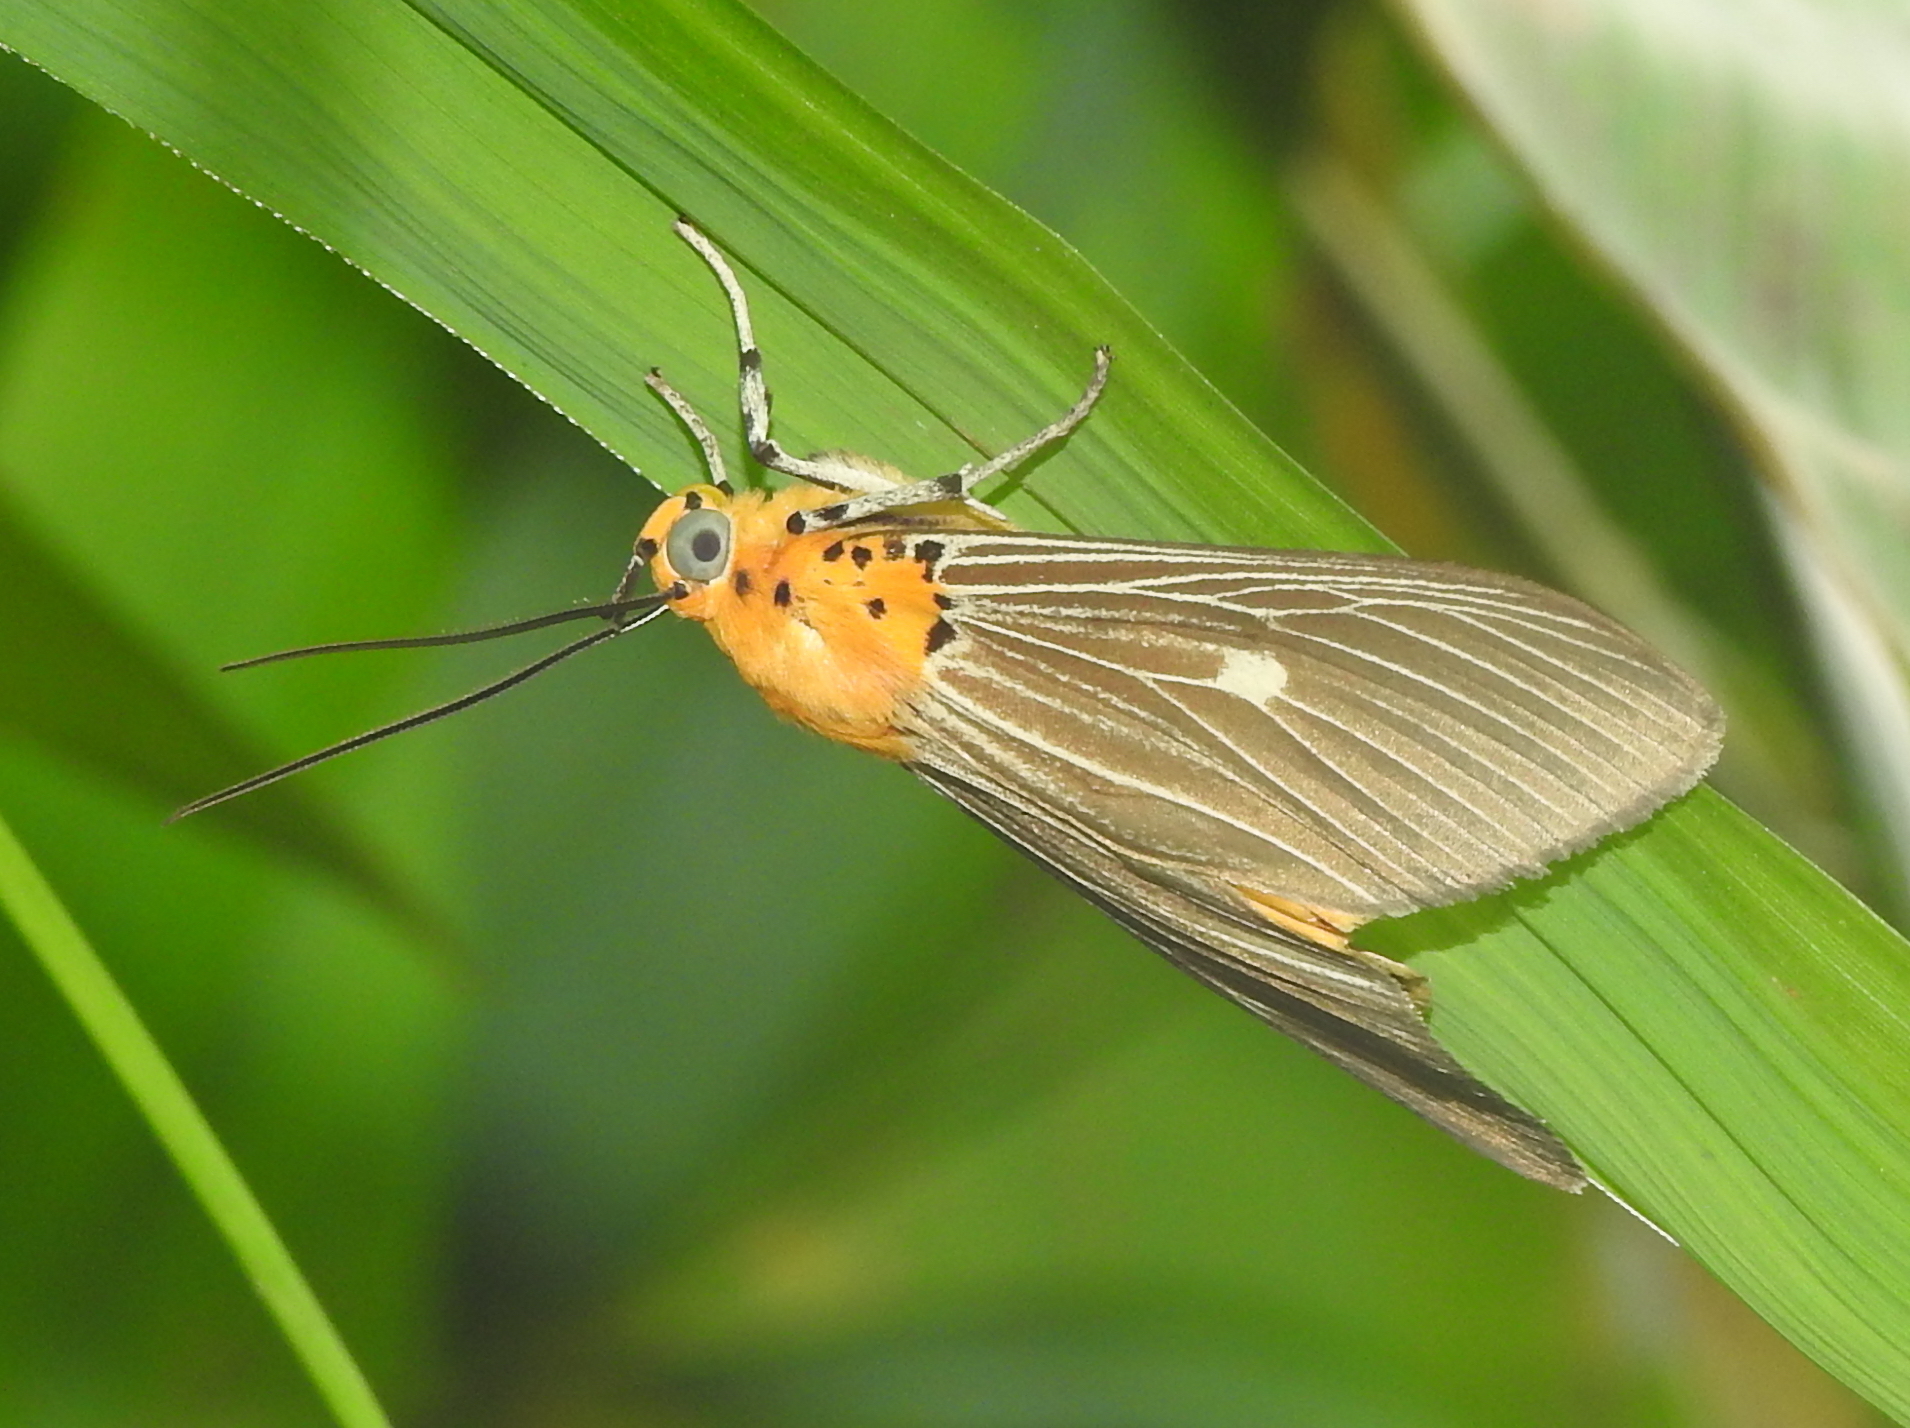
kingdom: Animalia
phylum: Arthropoda
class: Insecta
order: Lepidoptera
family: Erebidae
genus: Asota
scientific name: Asota caricae
